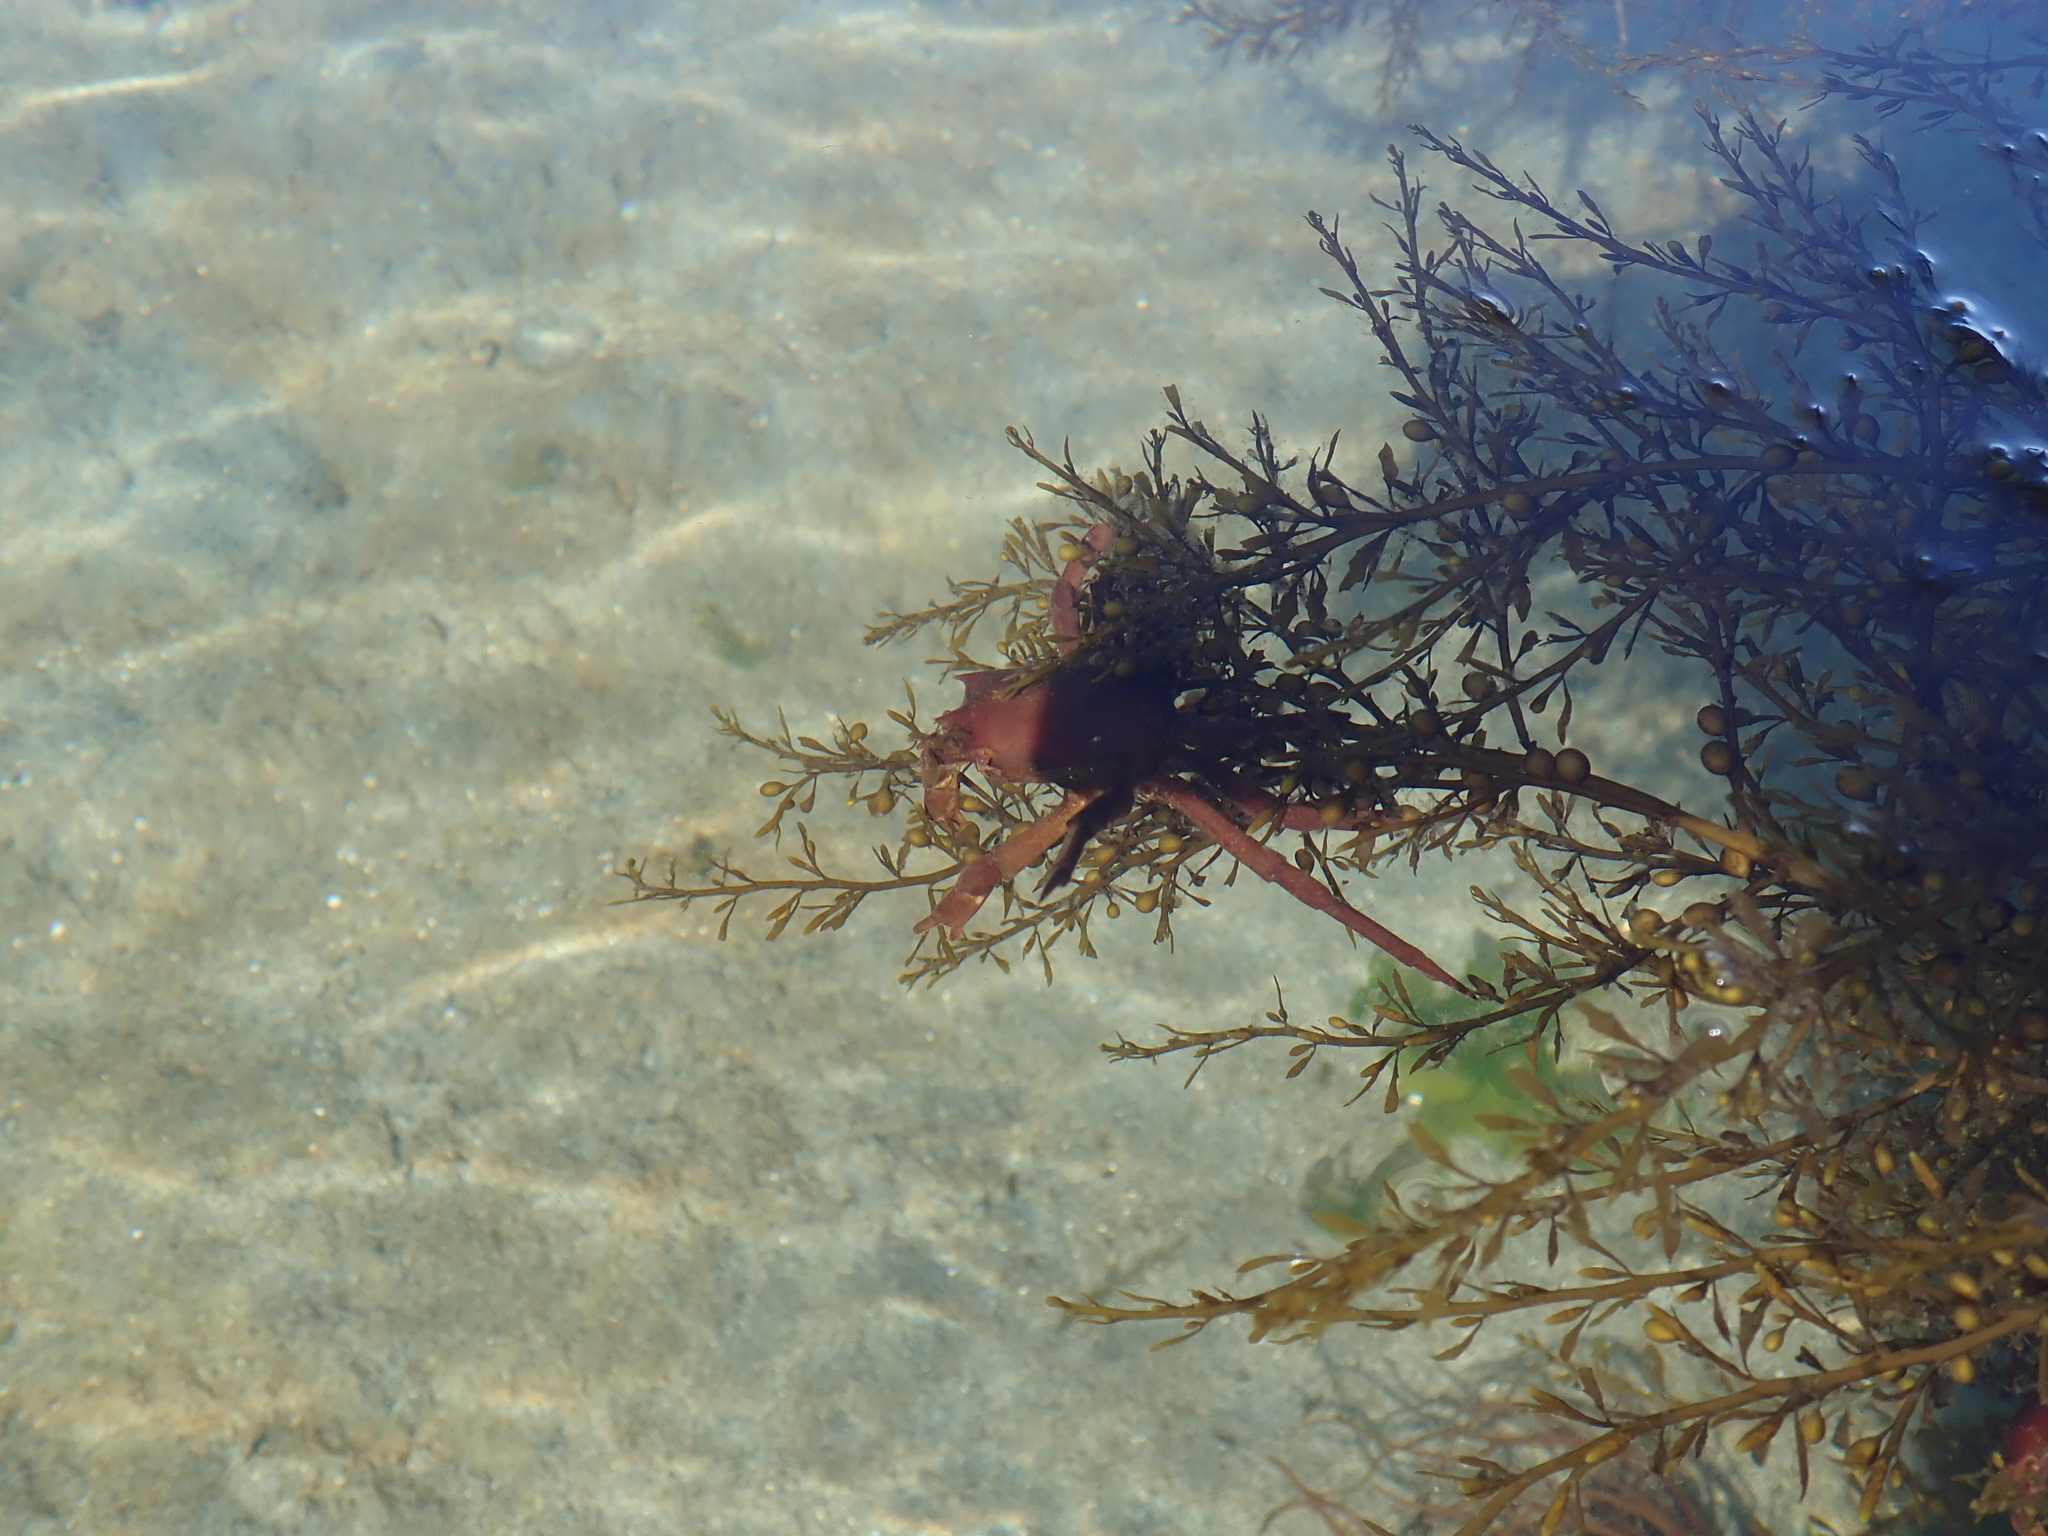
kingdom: Animalia
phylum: Arthropoda
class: Malacostraca
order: Decapoda
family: Epialtidae
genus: Pugettia
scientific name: Pugettia producta
